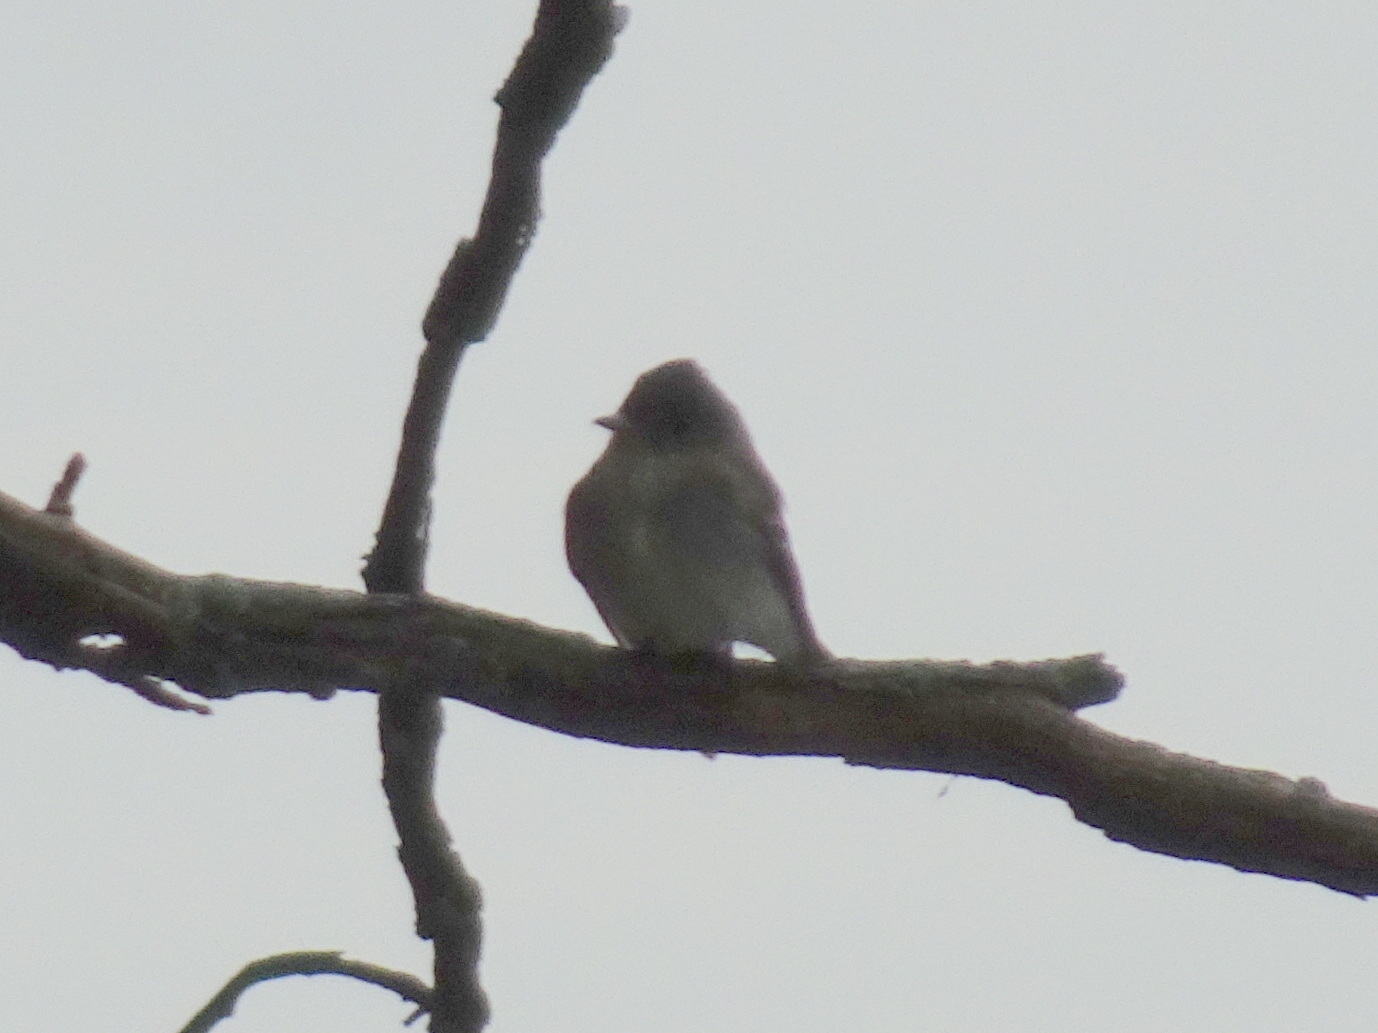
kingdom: Animalia
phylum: Chordata
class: Aves
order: Passeriformes
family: Tyrannidae
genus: Contopus
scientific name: Contopus virens
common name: Eastern wood-pewee
